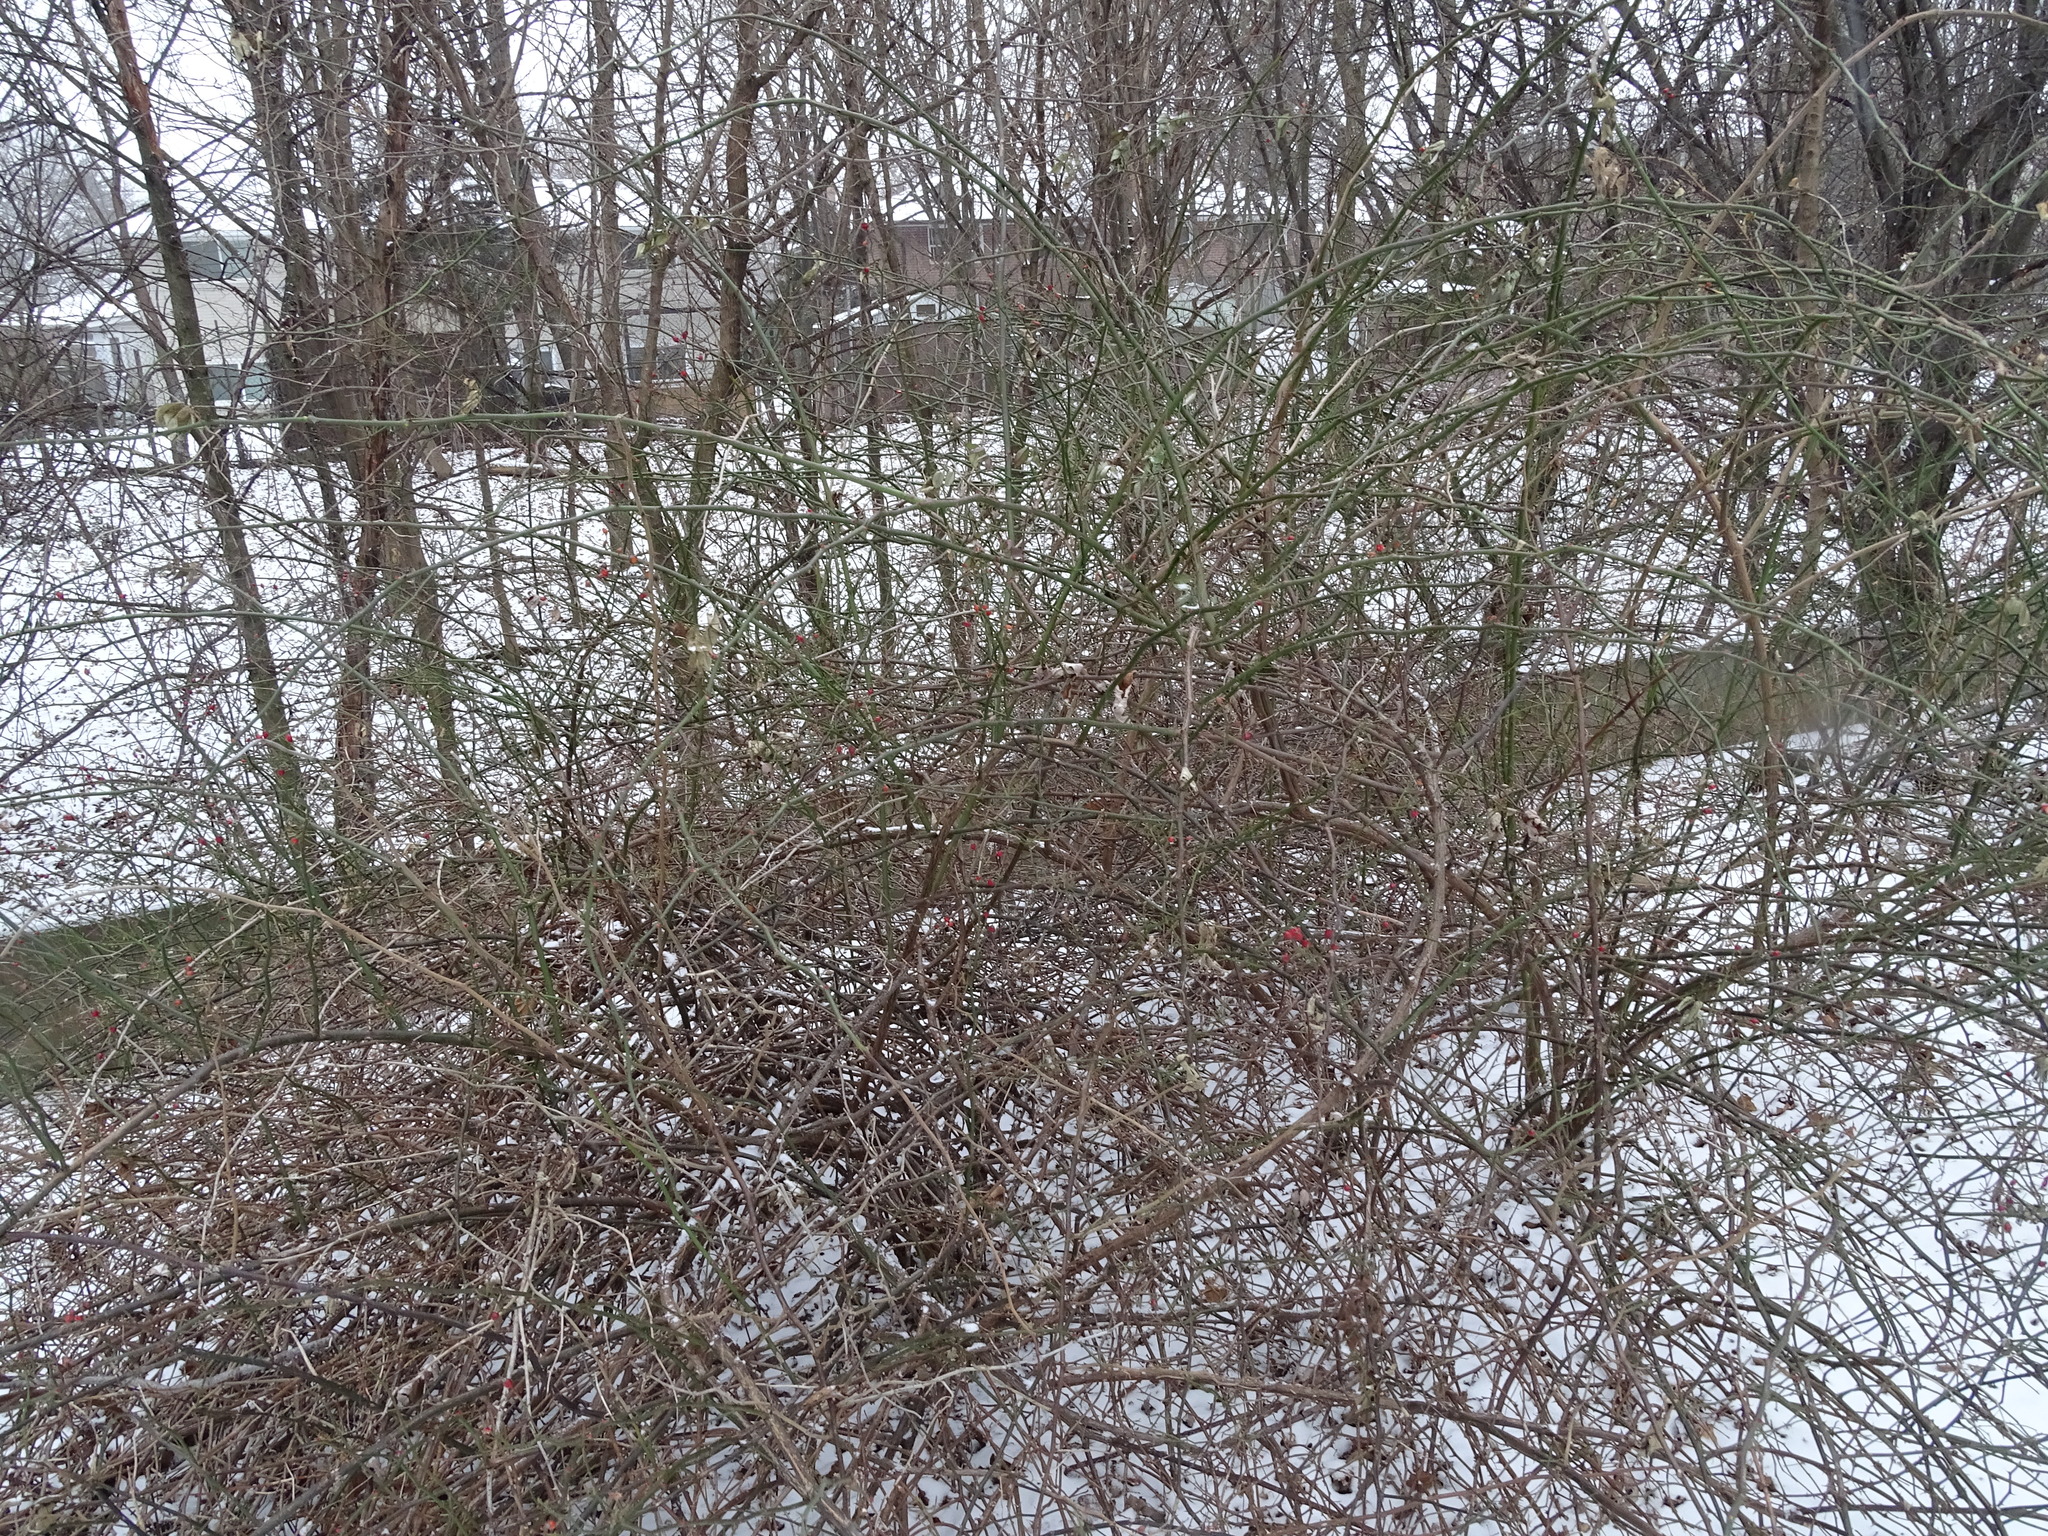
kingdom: Plantae
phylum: Tracheophyta
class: Magnoliopsida
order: Rosales
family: Rosaceae
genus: Rosa
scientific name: Rosa multiflora
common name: Multiflora rose
